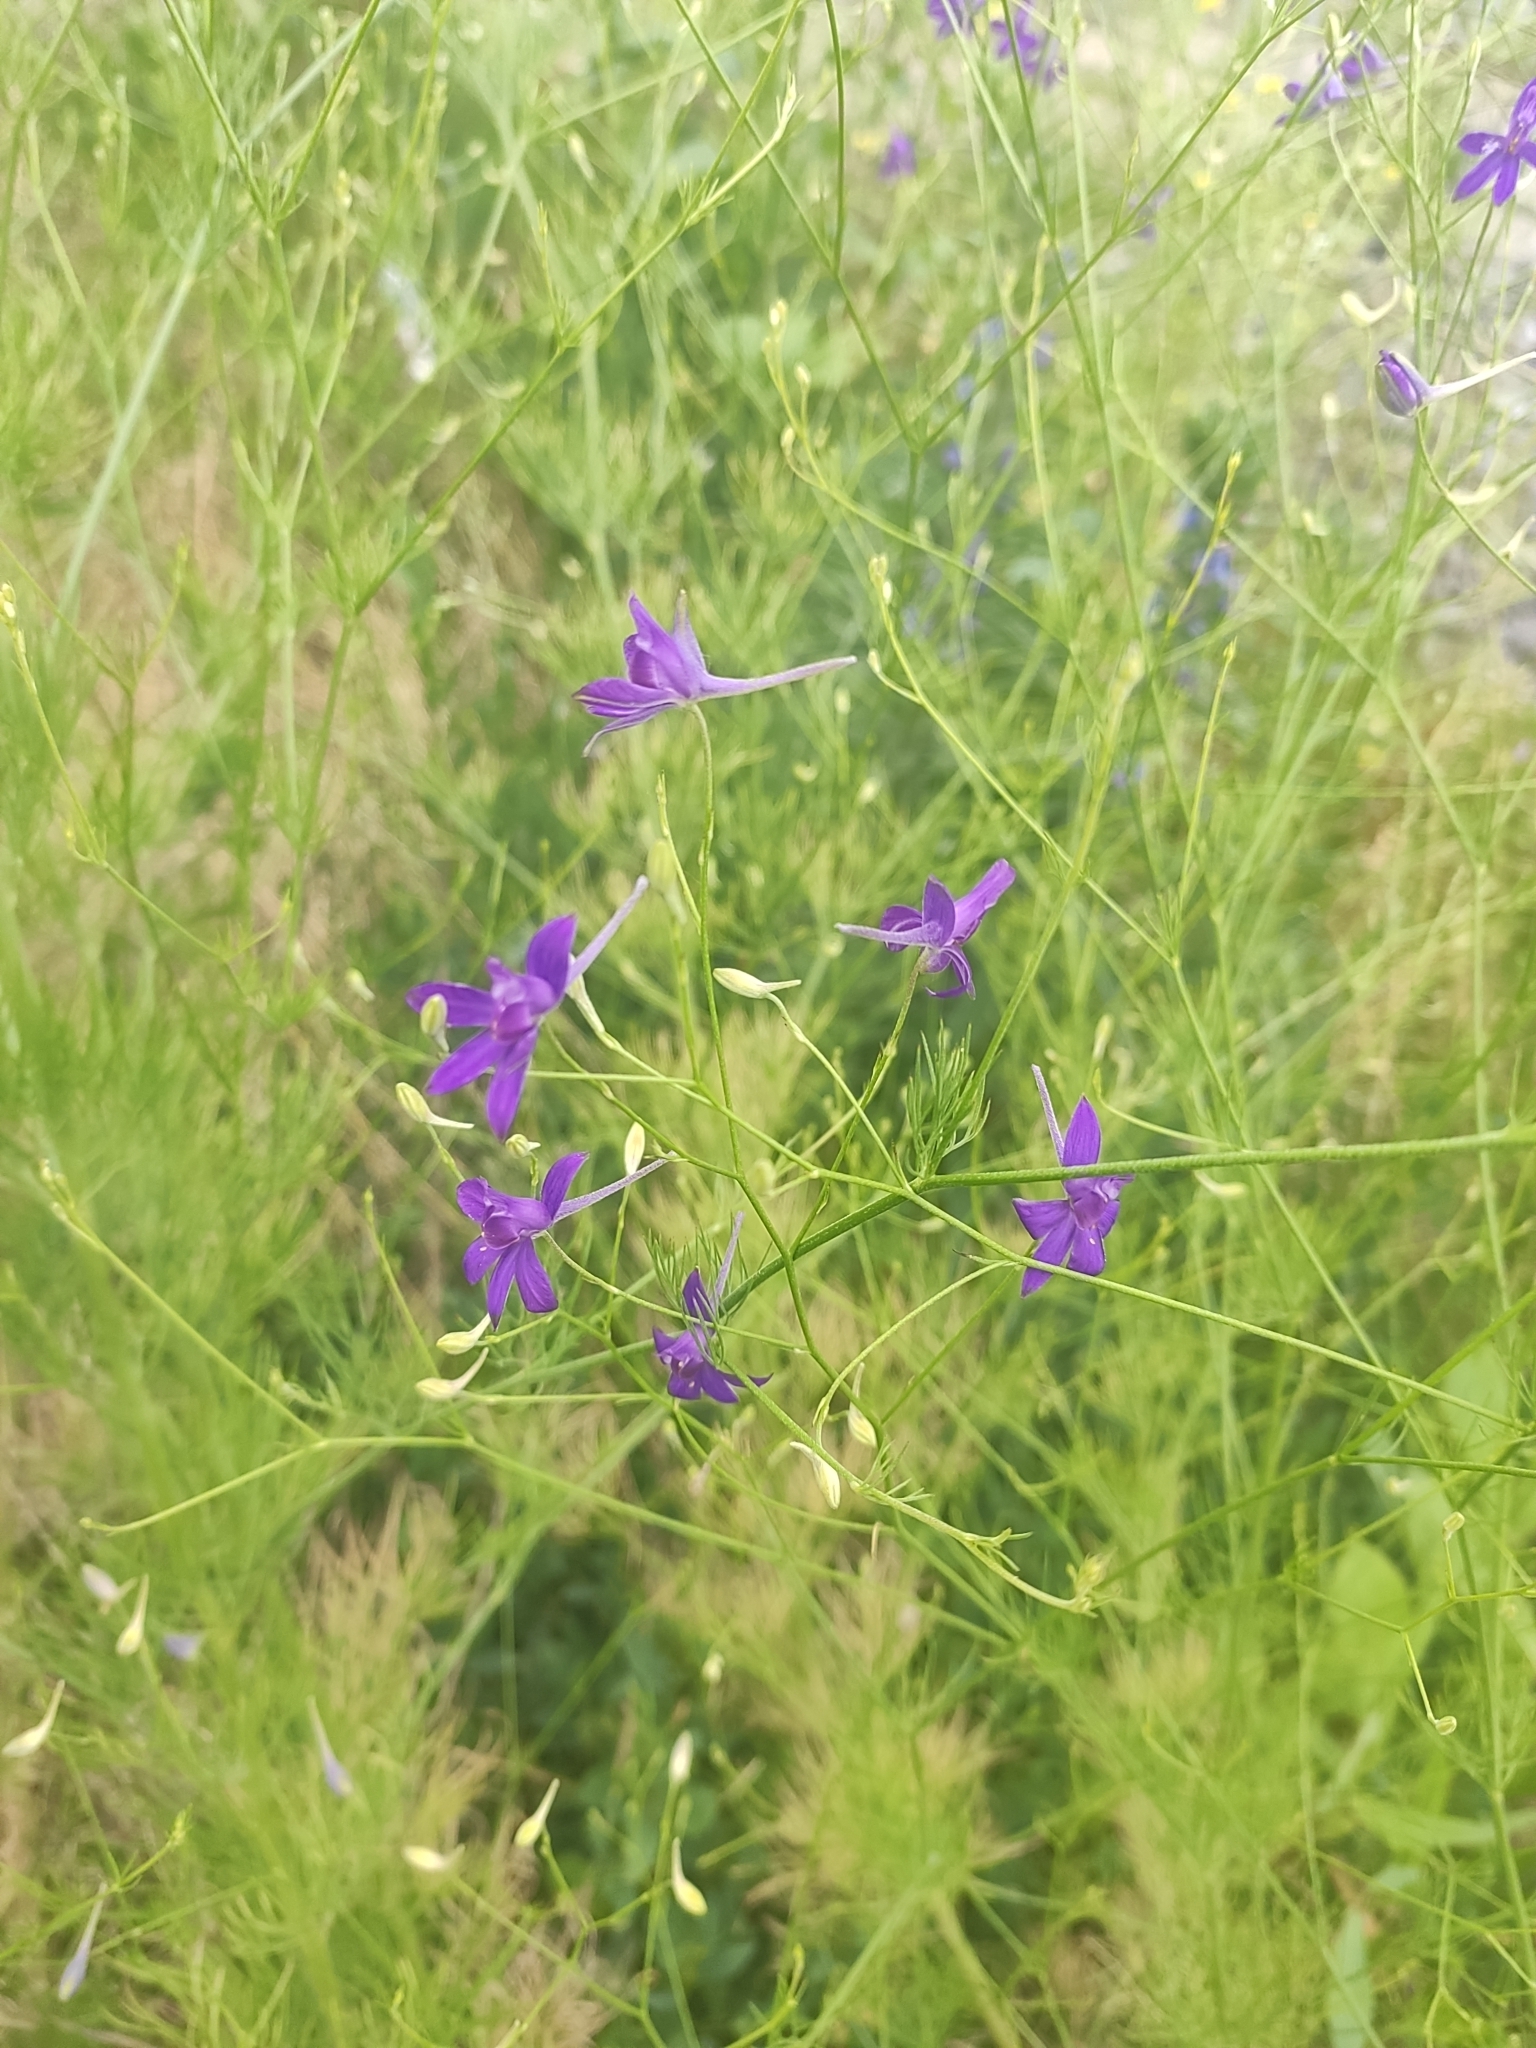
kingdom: Plantae
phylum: Tracheophyta
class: Magnoliopsida
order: Ranunculales
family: Ranunculaceae
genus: Delphinium
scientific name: Delphinium consolida
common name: Branching larkspur
